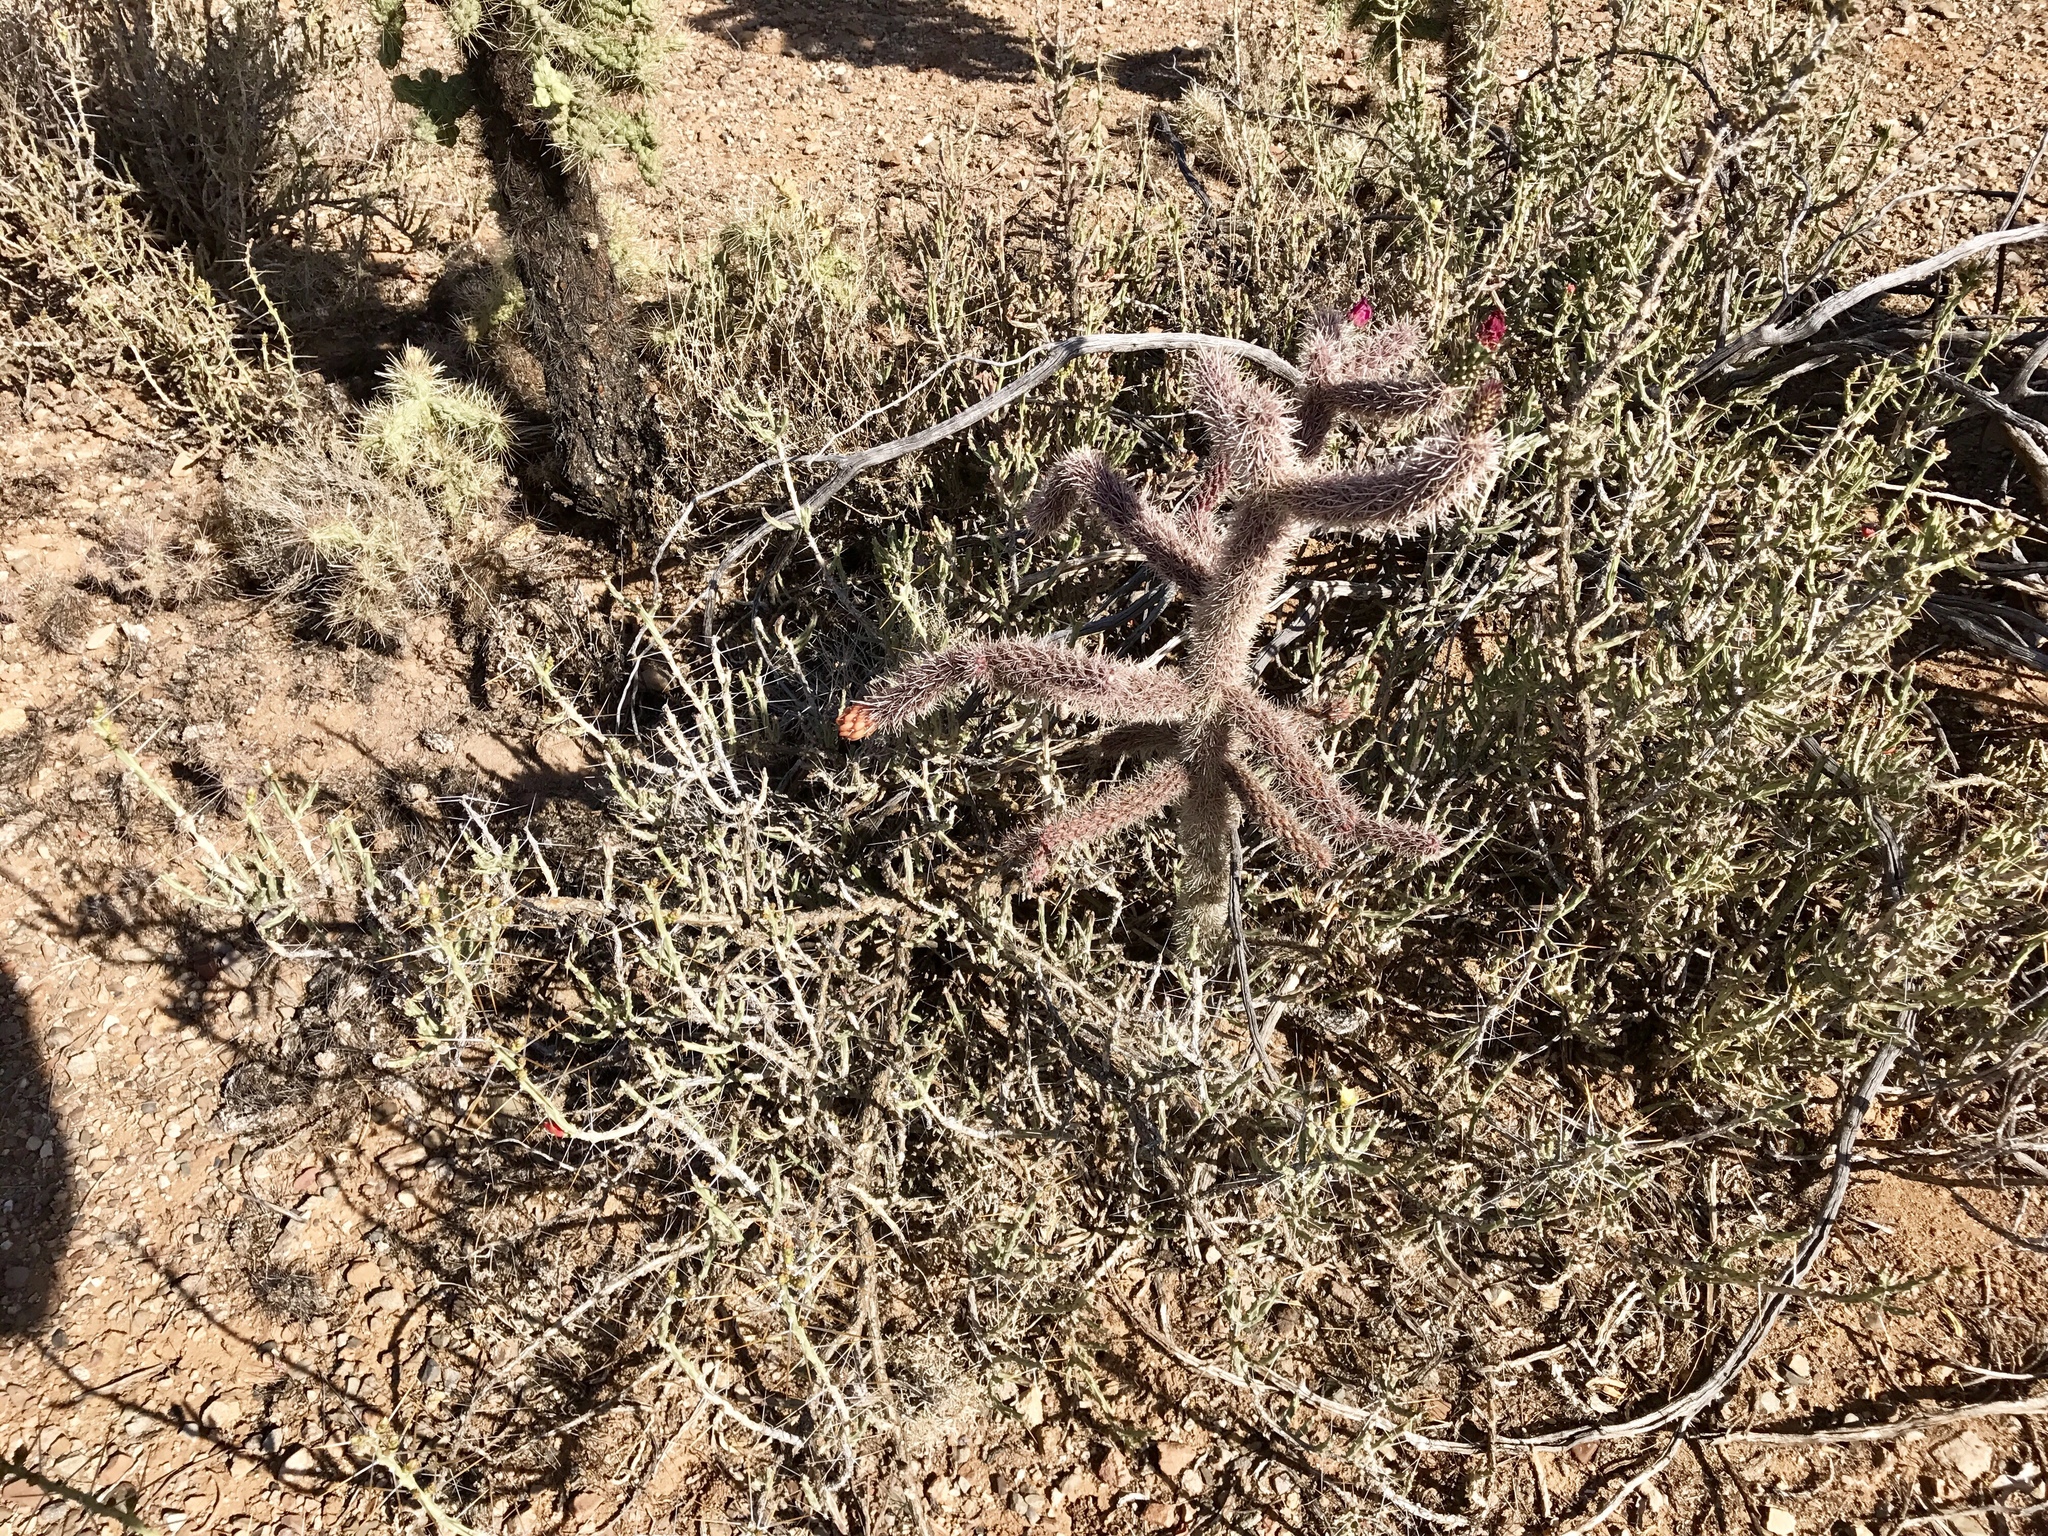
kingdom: Plantae
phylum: Tracheophyta
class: Magnoliopsida
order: Caryophyllales
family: Cactaceae
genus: Cylindropuntia
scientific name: Cylindropuntia leptocaulis
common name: Christmas cactus
